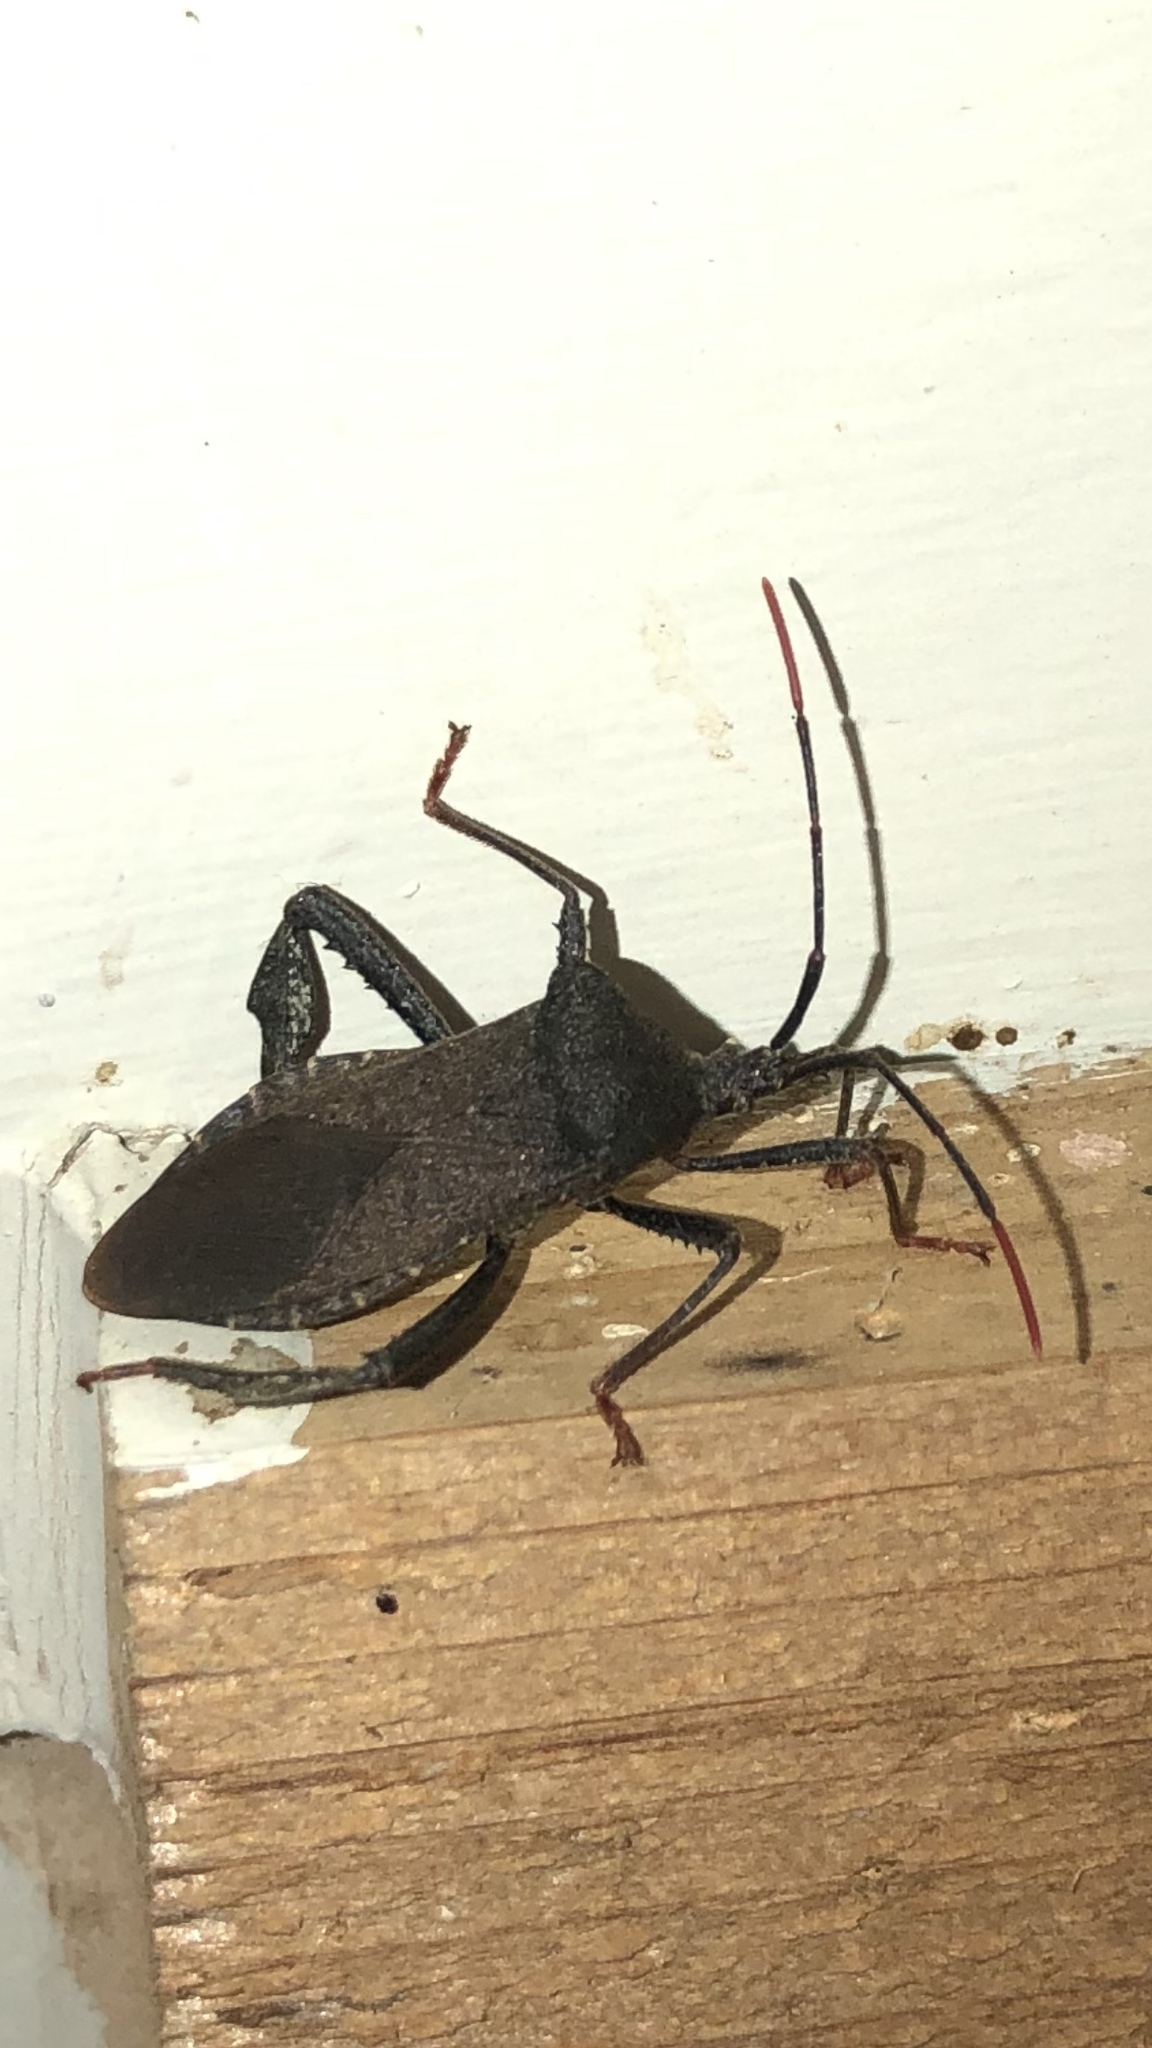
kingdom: Animalia
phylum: Arthropoda
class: Insecta
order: Hemiptera
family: Coreidae
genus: Acanthocephala
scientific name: Acanthocephala terminalis
